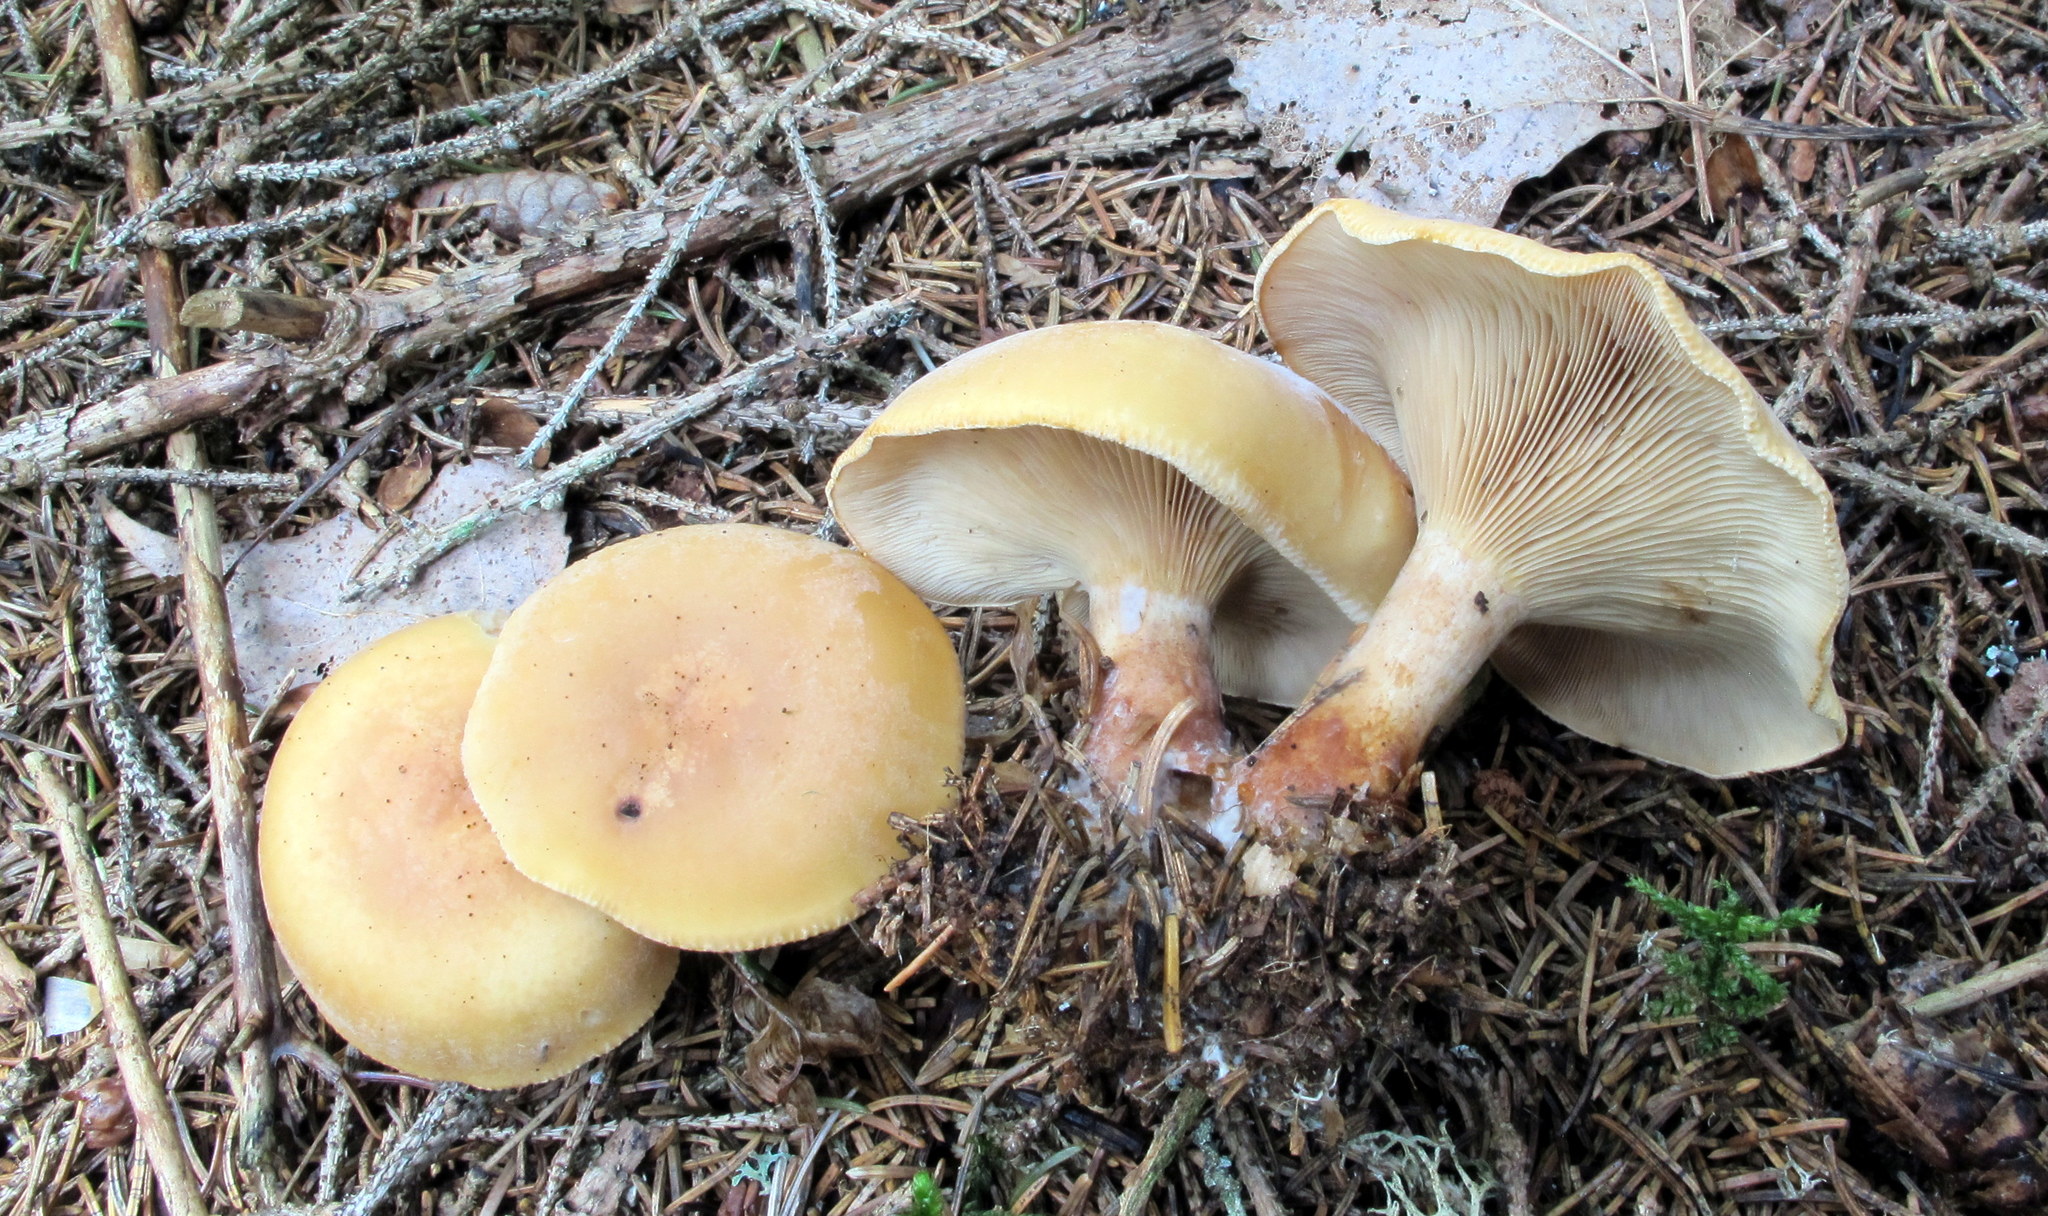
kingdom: Fungi
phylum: Basidiomycota
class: Agaricomycetes
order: Agaricales
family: Tricholomataceae
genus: Paralepista
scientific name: Paralepista flaccida
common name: Tawny funnel cap
